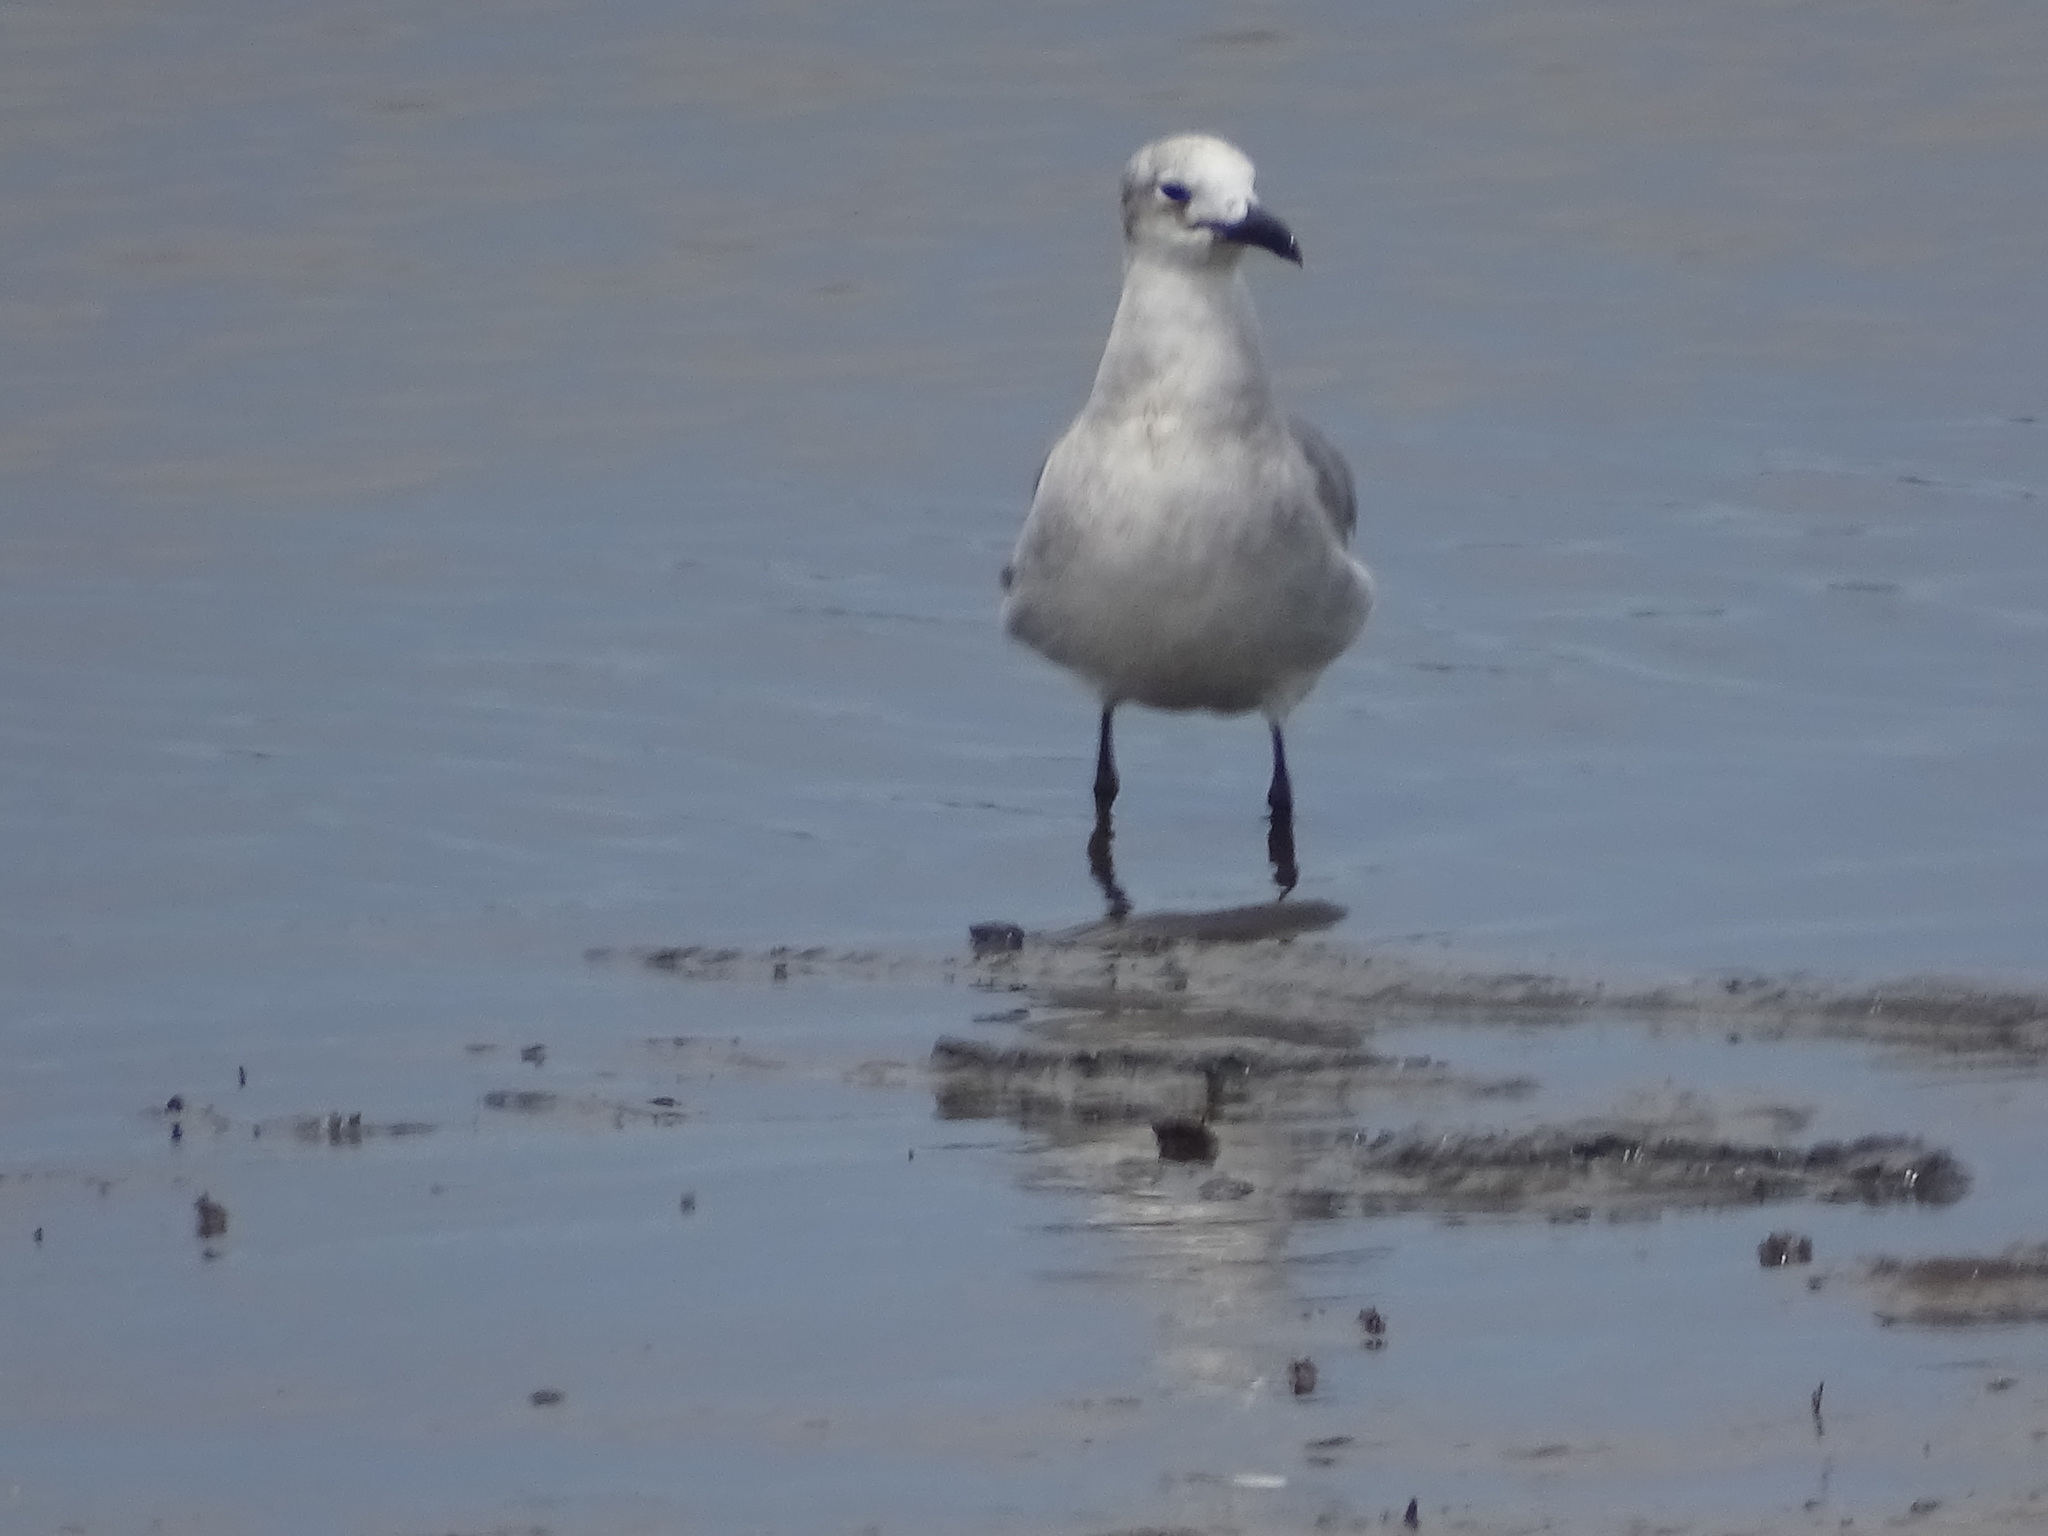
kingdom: Animalia
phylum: Chordata
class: Aves
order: Charadriiformes
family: Laridae
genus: Leucophaeus
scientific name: Leucophaeus atricilla
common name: Laughing gull
